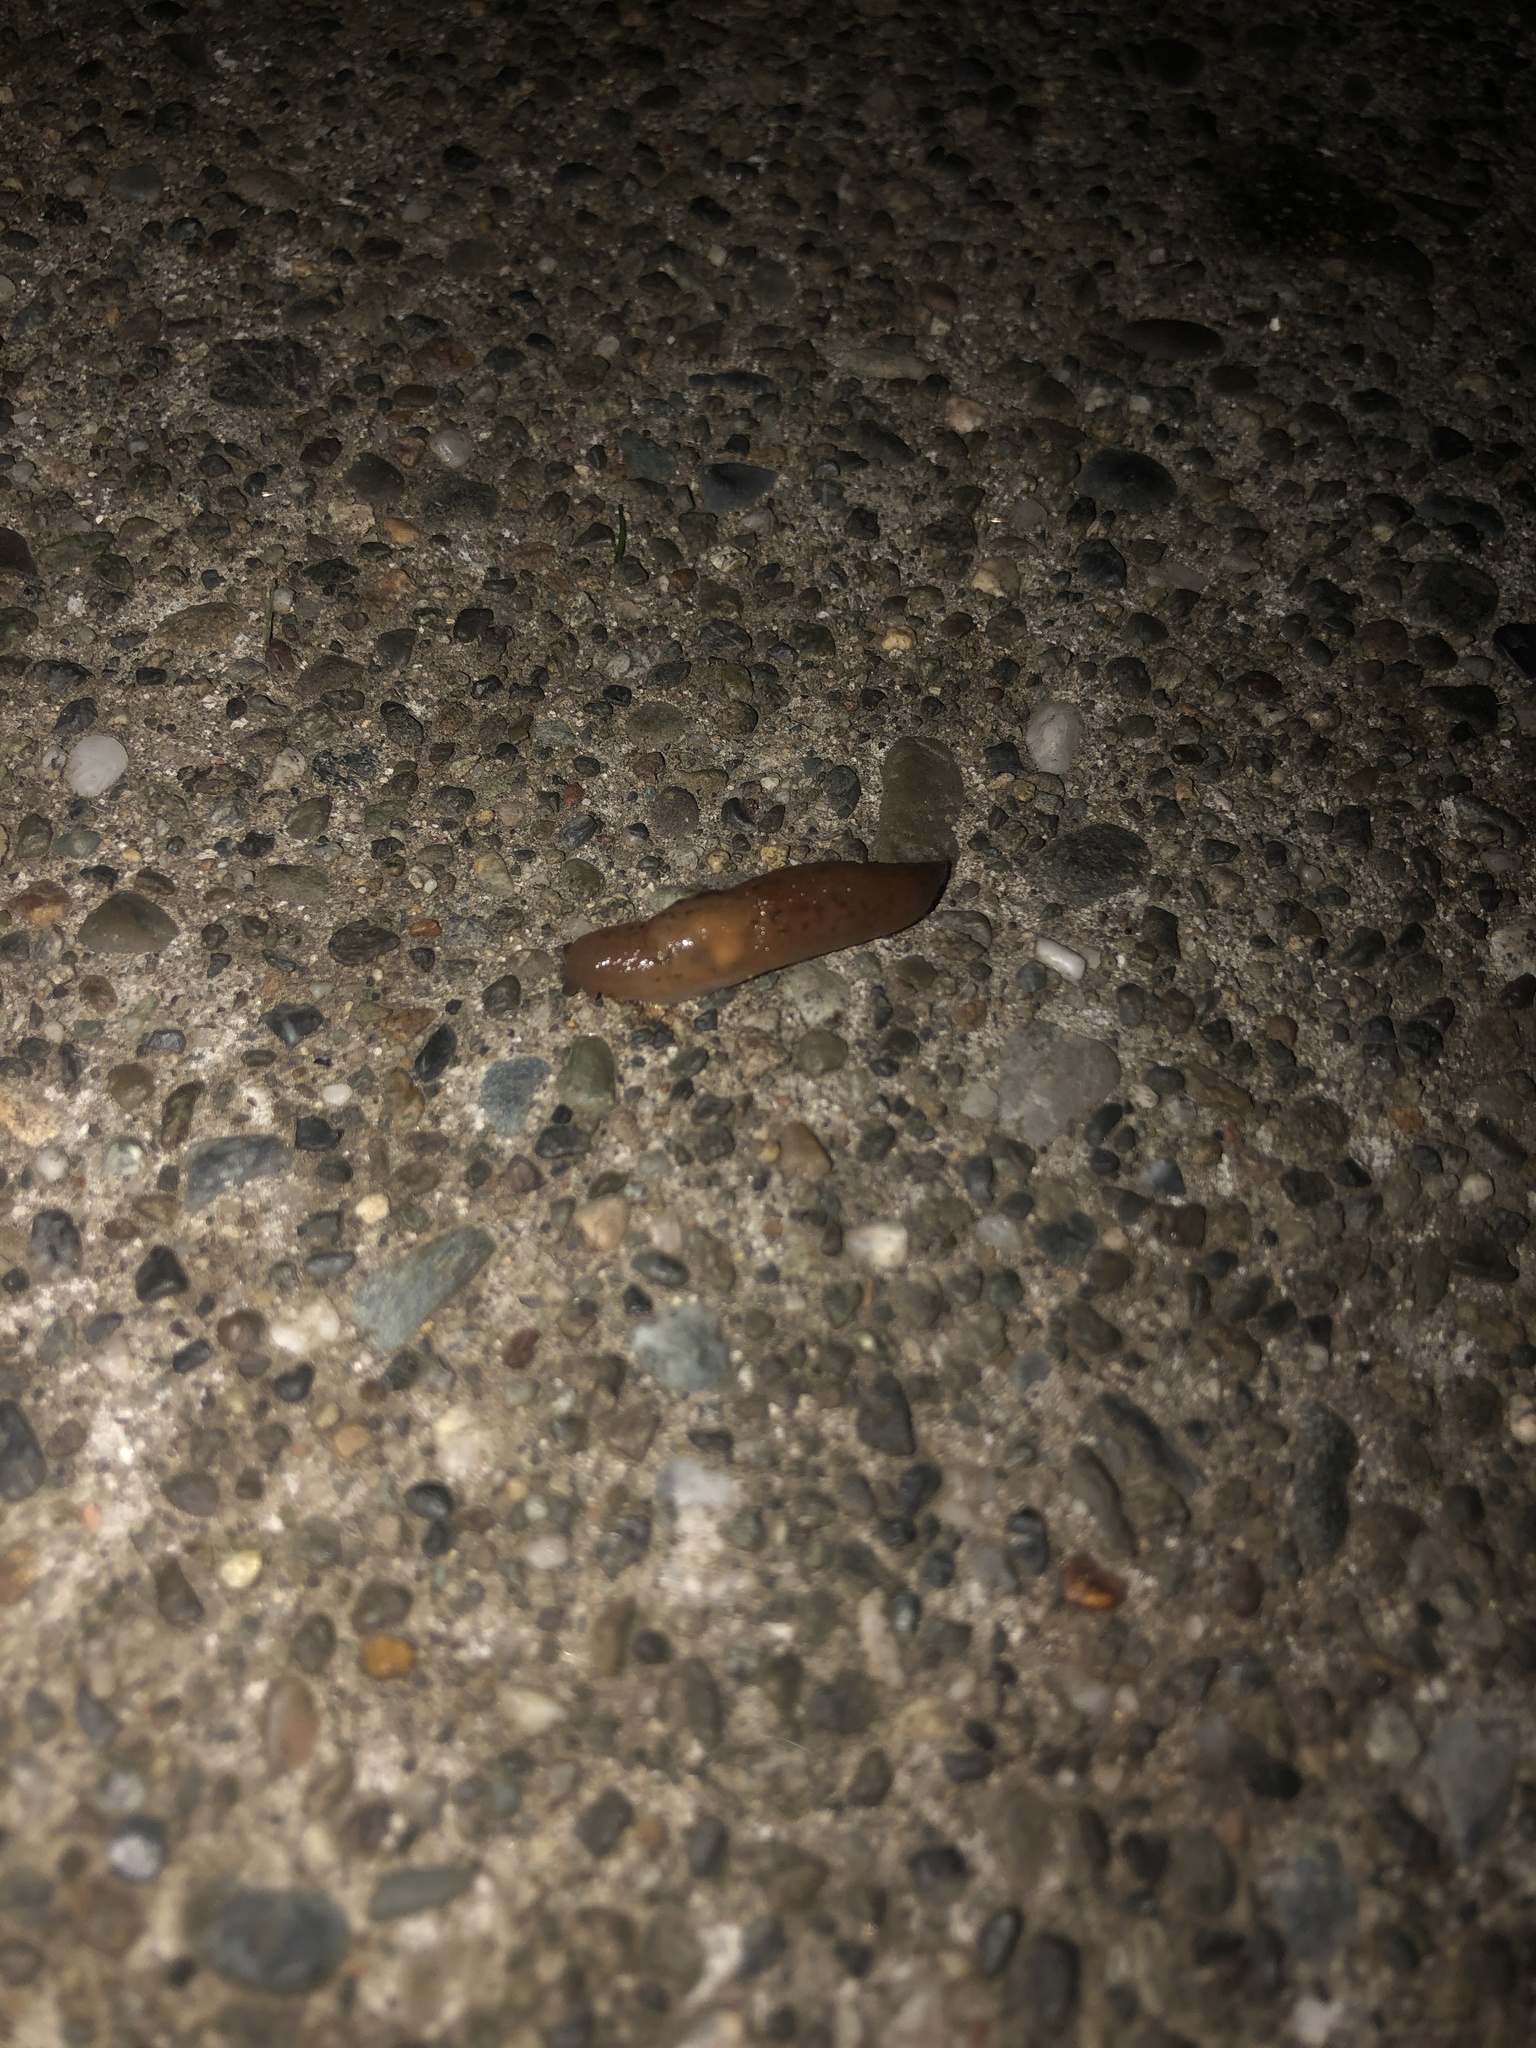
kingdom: Animalia
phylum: Mollusca
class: Gastropoda
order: Stylommatophora
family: Limacidae
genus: Ambigolimax
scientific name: Ambigolimax
